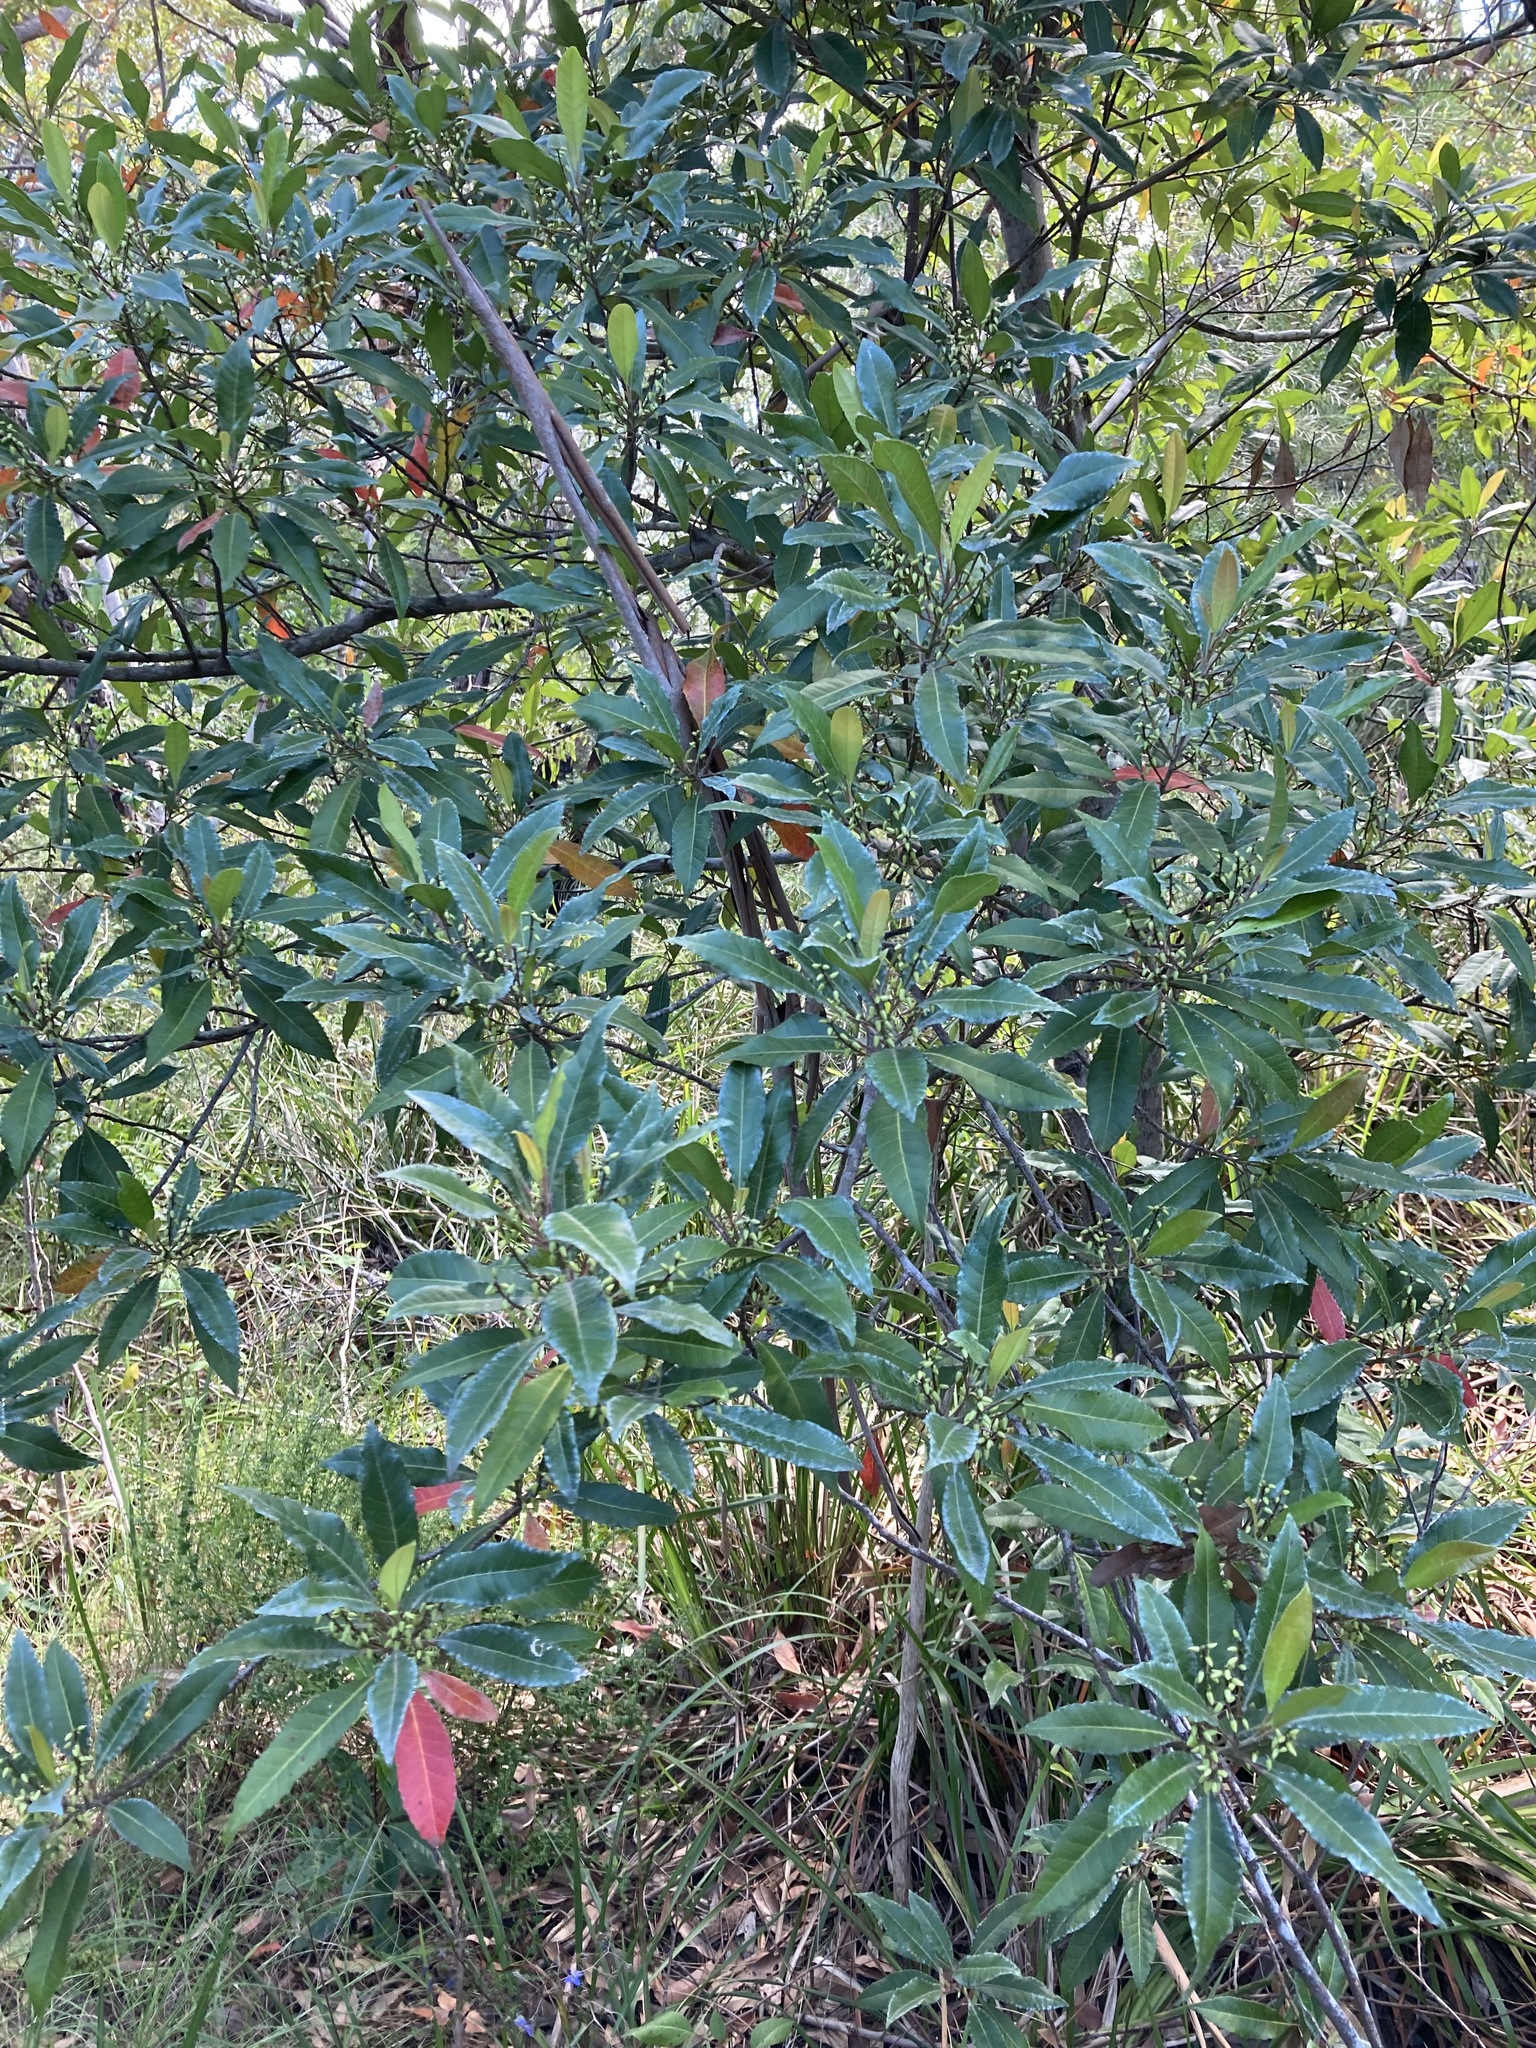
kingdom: Plantae
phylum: Tracheophyta
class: Magnoliopsida
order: Oxalidales
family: Elaeocarpaceae
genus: Elaeocarpus
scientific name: Elaeocarpus reticulatus
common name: Ash quandong
